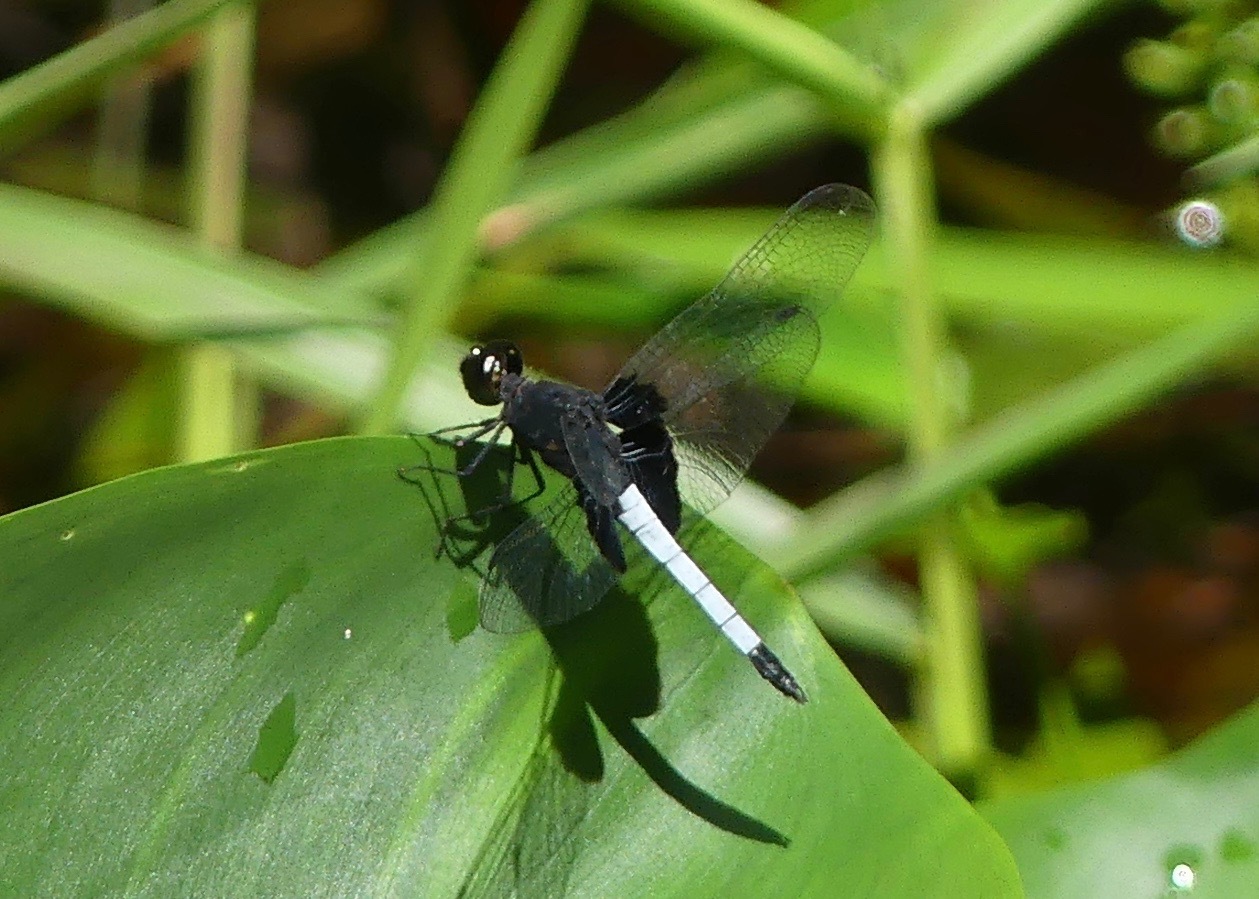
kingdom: Animalia
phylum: Arthropoda
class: Insecta
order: Odonata
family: Libellulidae
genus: Erythrodiplax
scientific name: Erythrodiplax unimaculata
